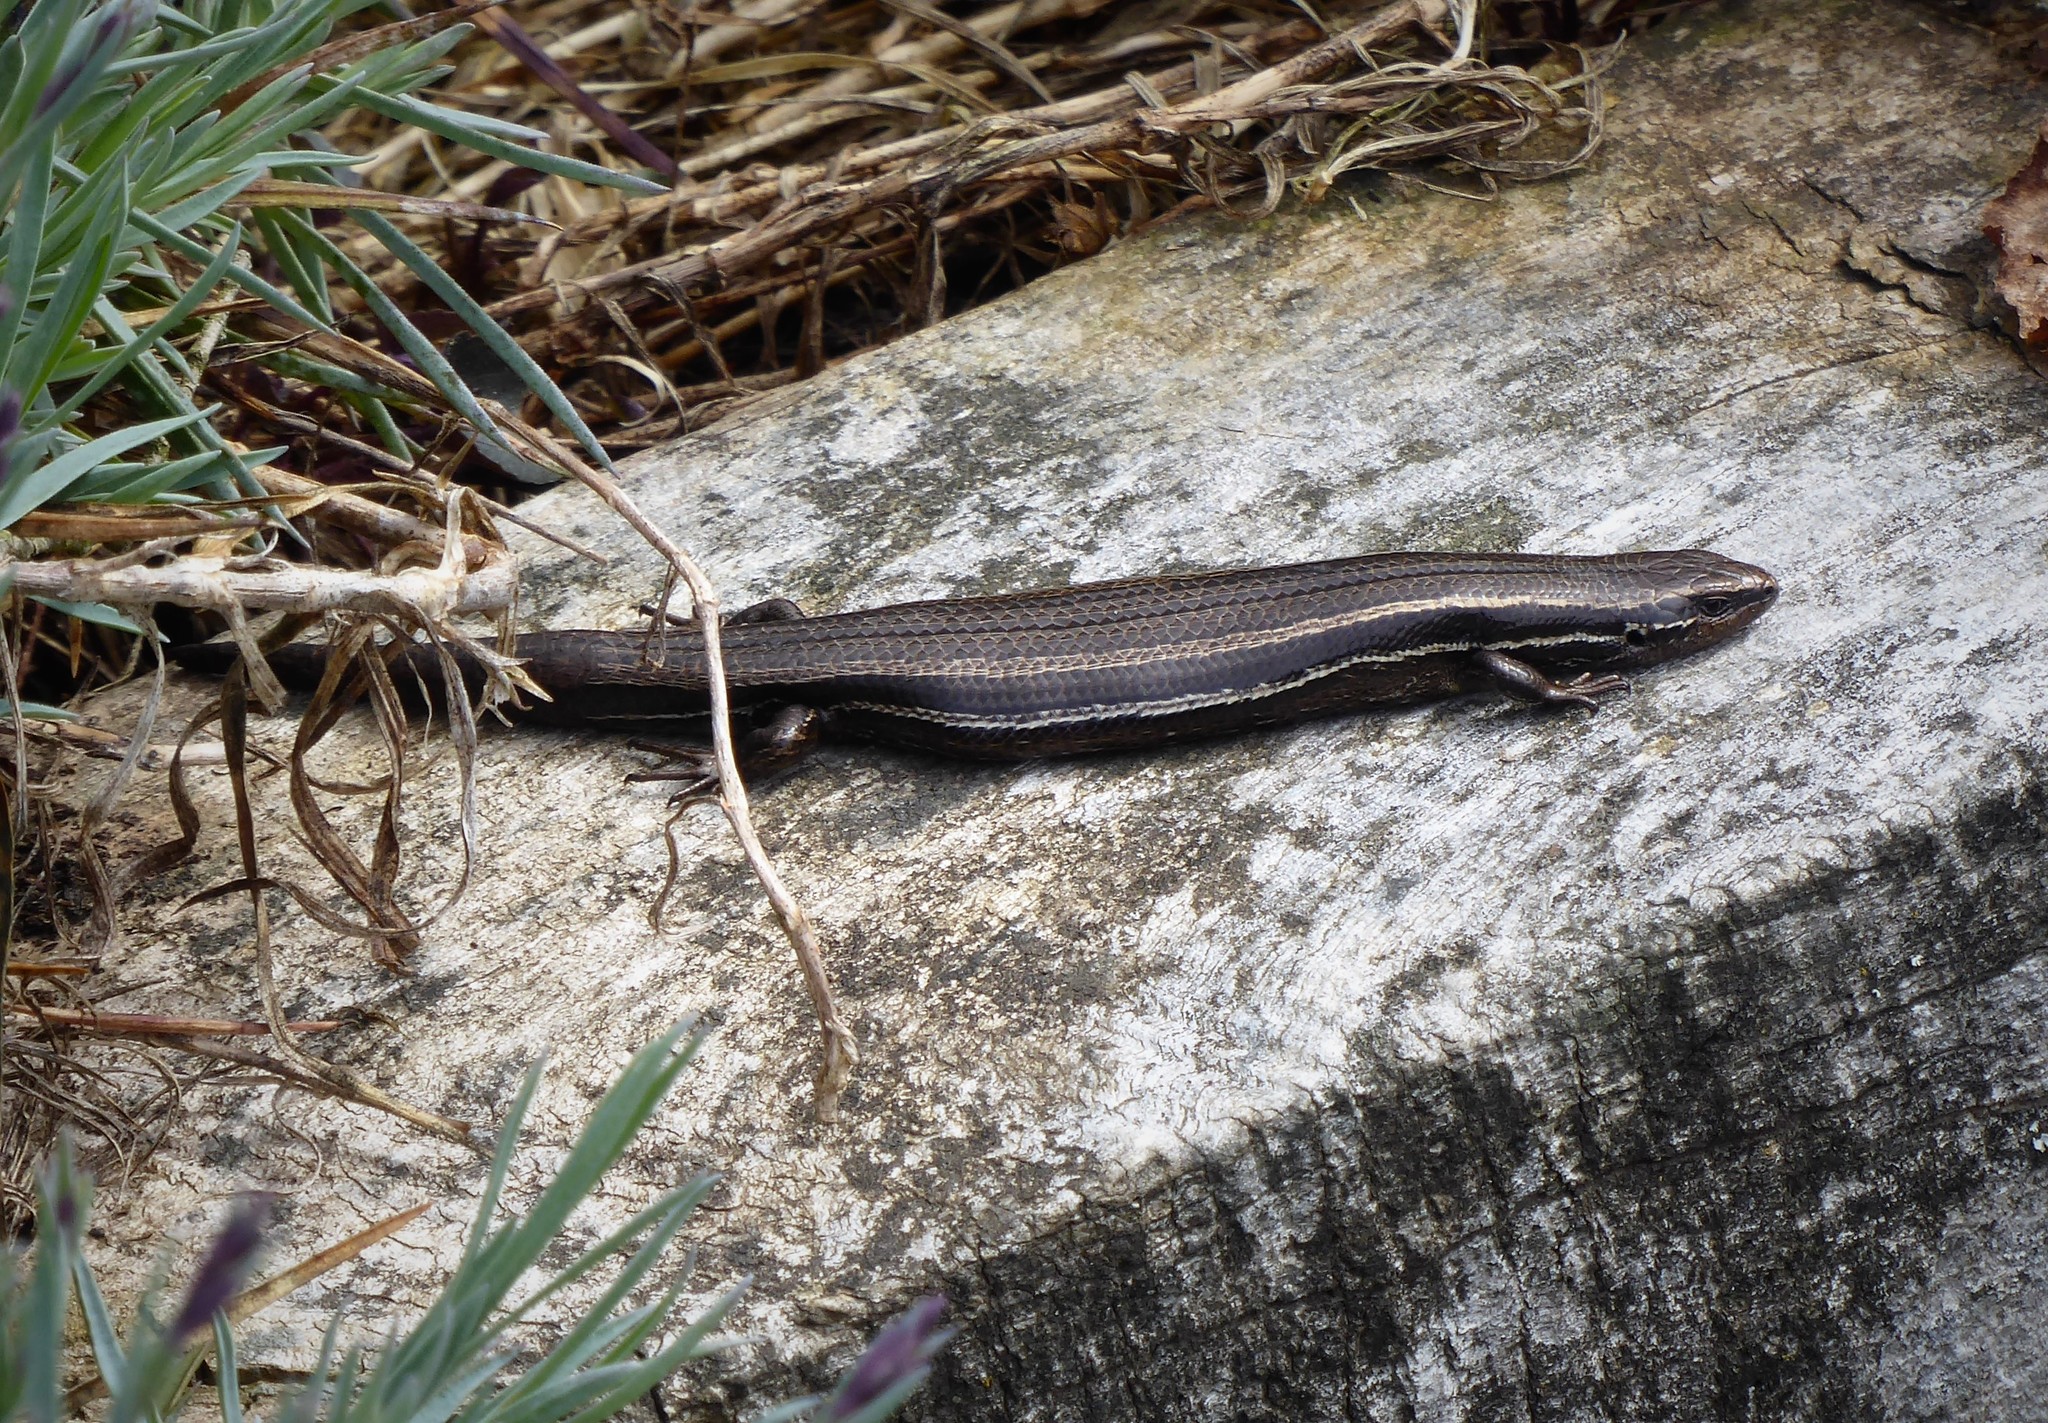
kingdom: Animalia
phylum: Chordata
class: Squamata
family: Scincidae
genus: Oligosoma
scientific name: Oligosoma polychroma
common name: Common new zealand skink
